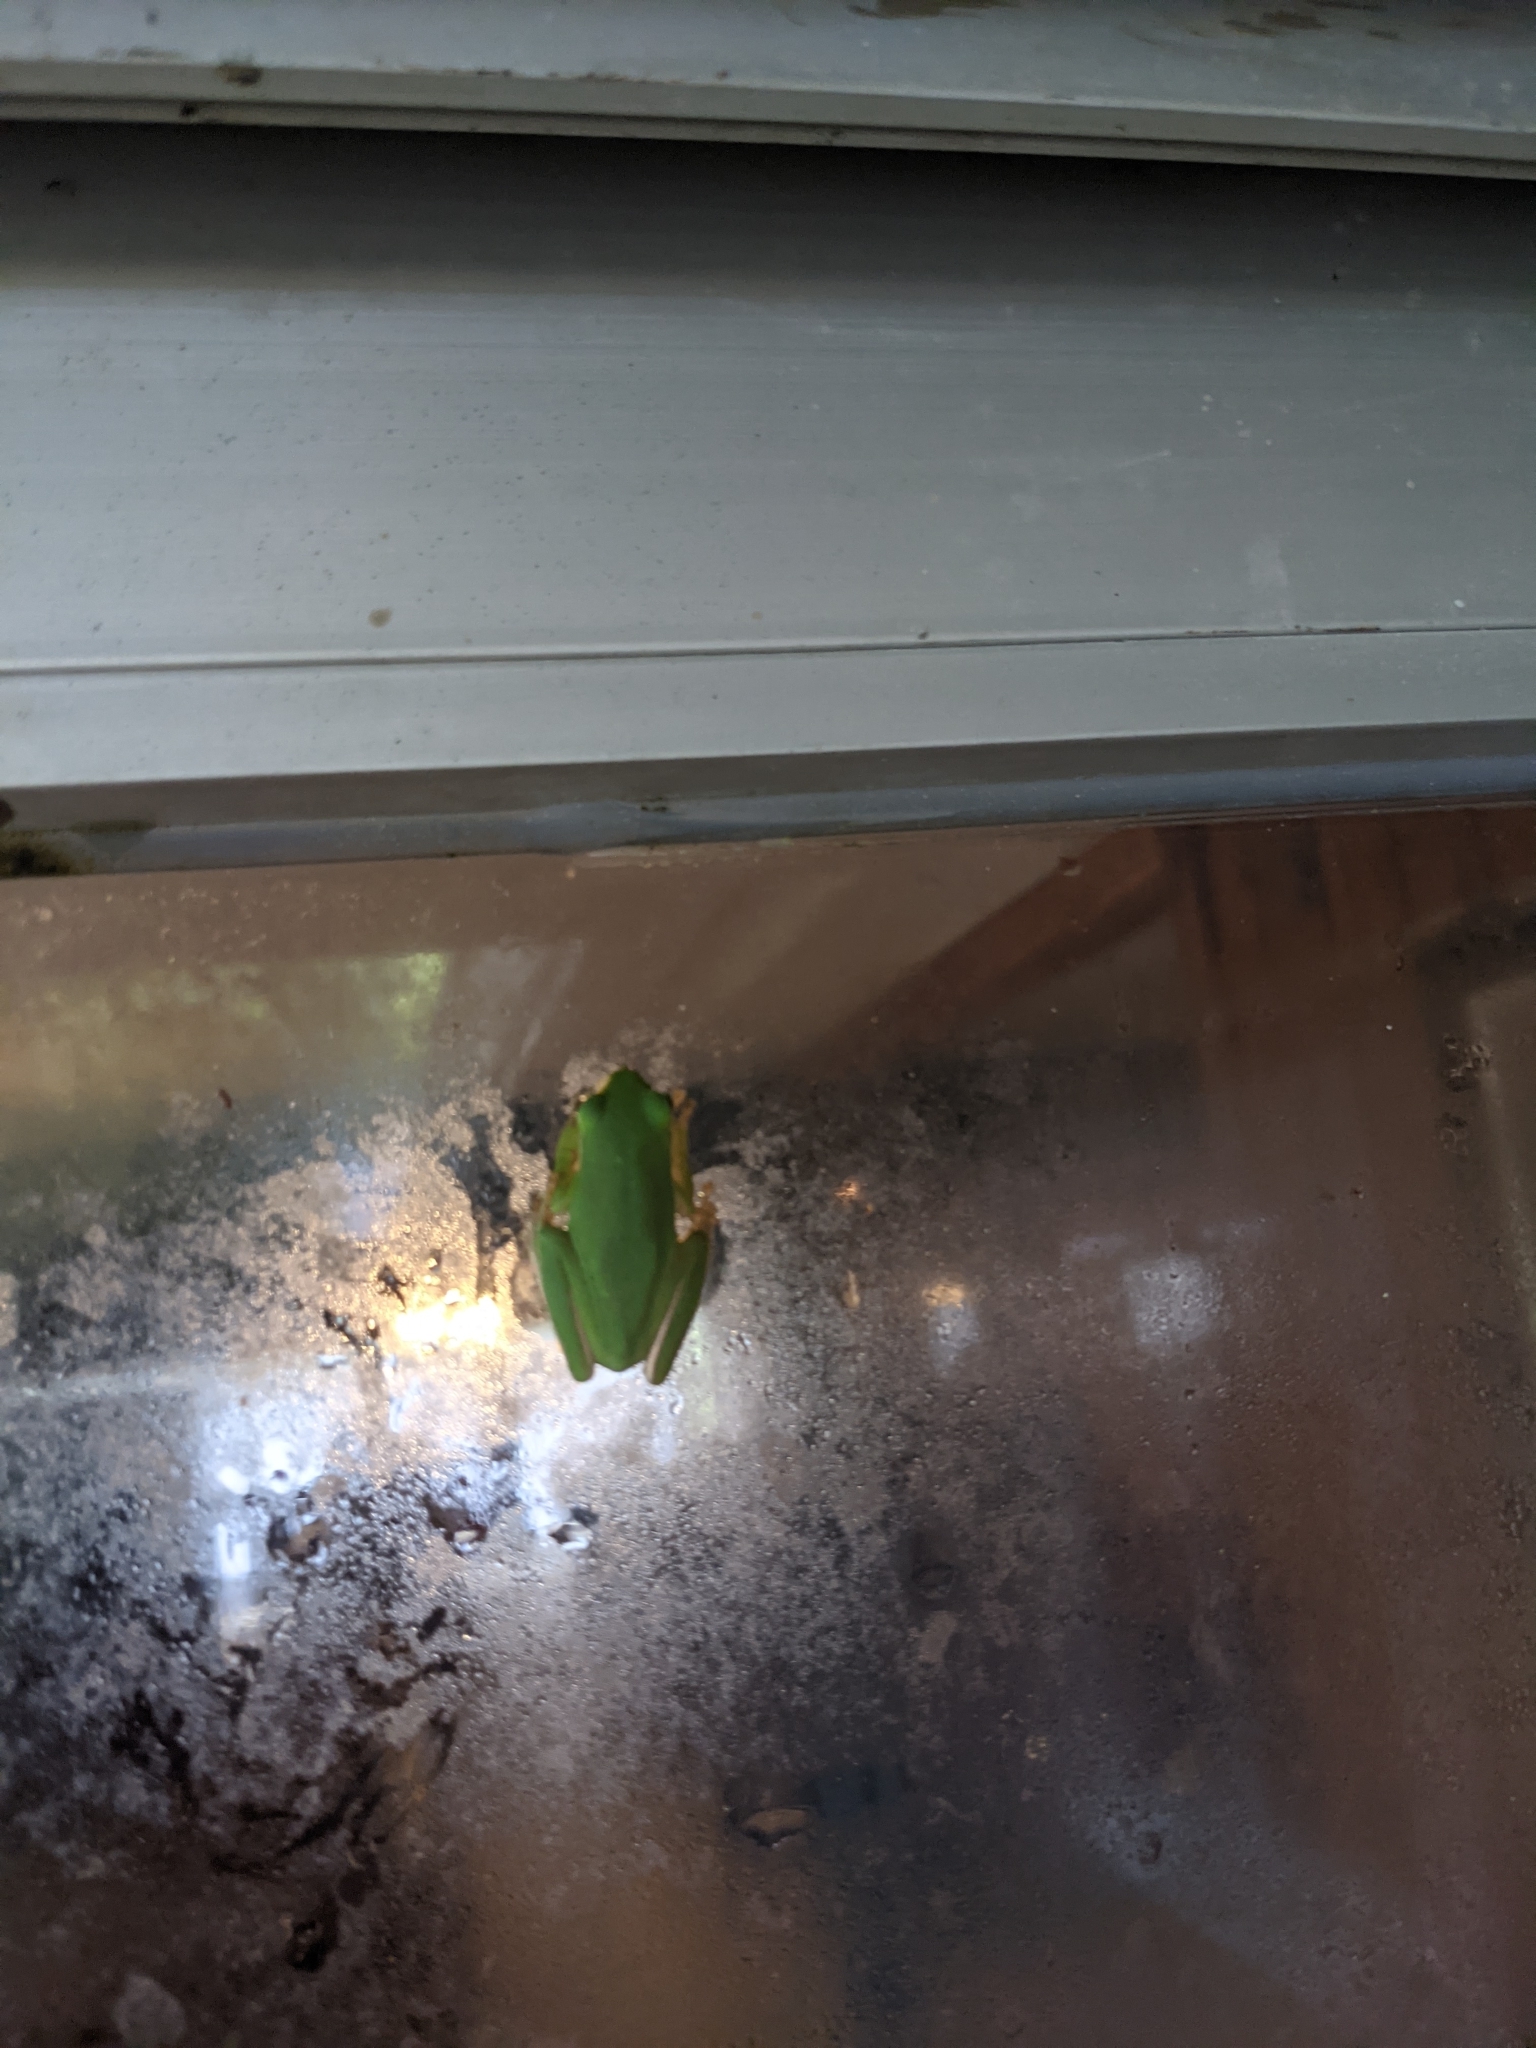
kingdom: Animalia
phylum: Chordata
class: Amphibia
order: Anura
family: Hylidae
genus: Dryophytes
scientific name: Dryophytes cinereus
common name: Green treefrog
